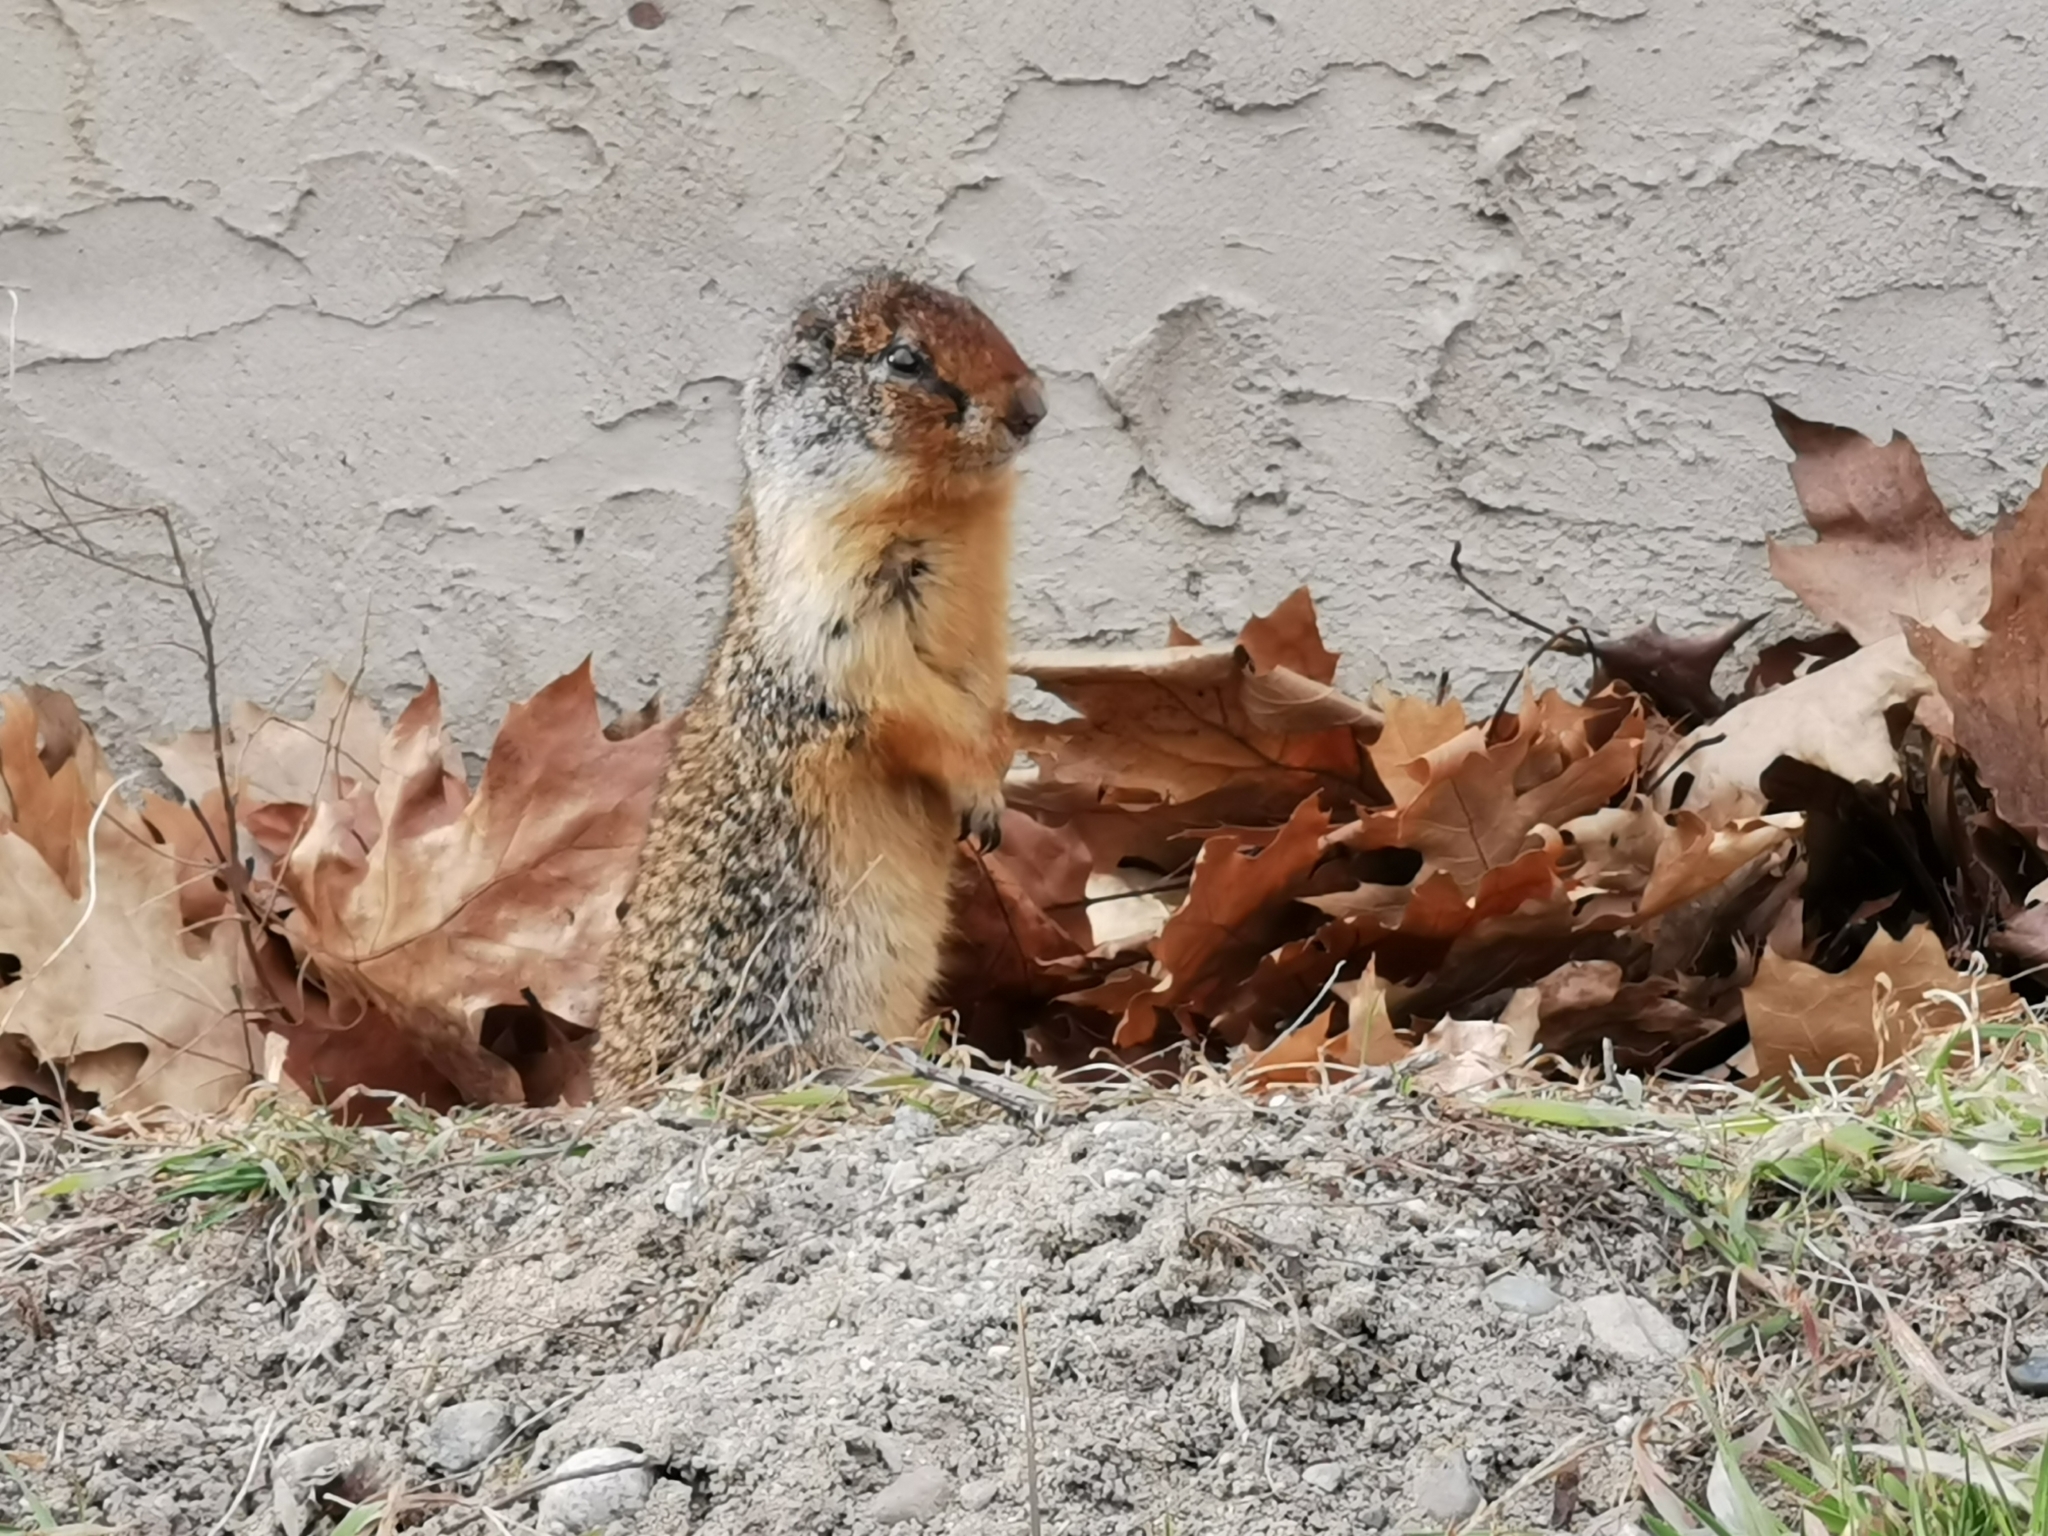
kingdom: Animalia
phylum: Chordata
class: Mammalia
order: Rodentia
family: Sciuridae
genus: Urocitellus
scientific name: Urocitellus columbianus
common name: Columbian ground squirrel
